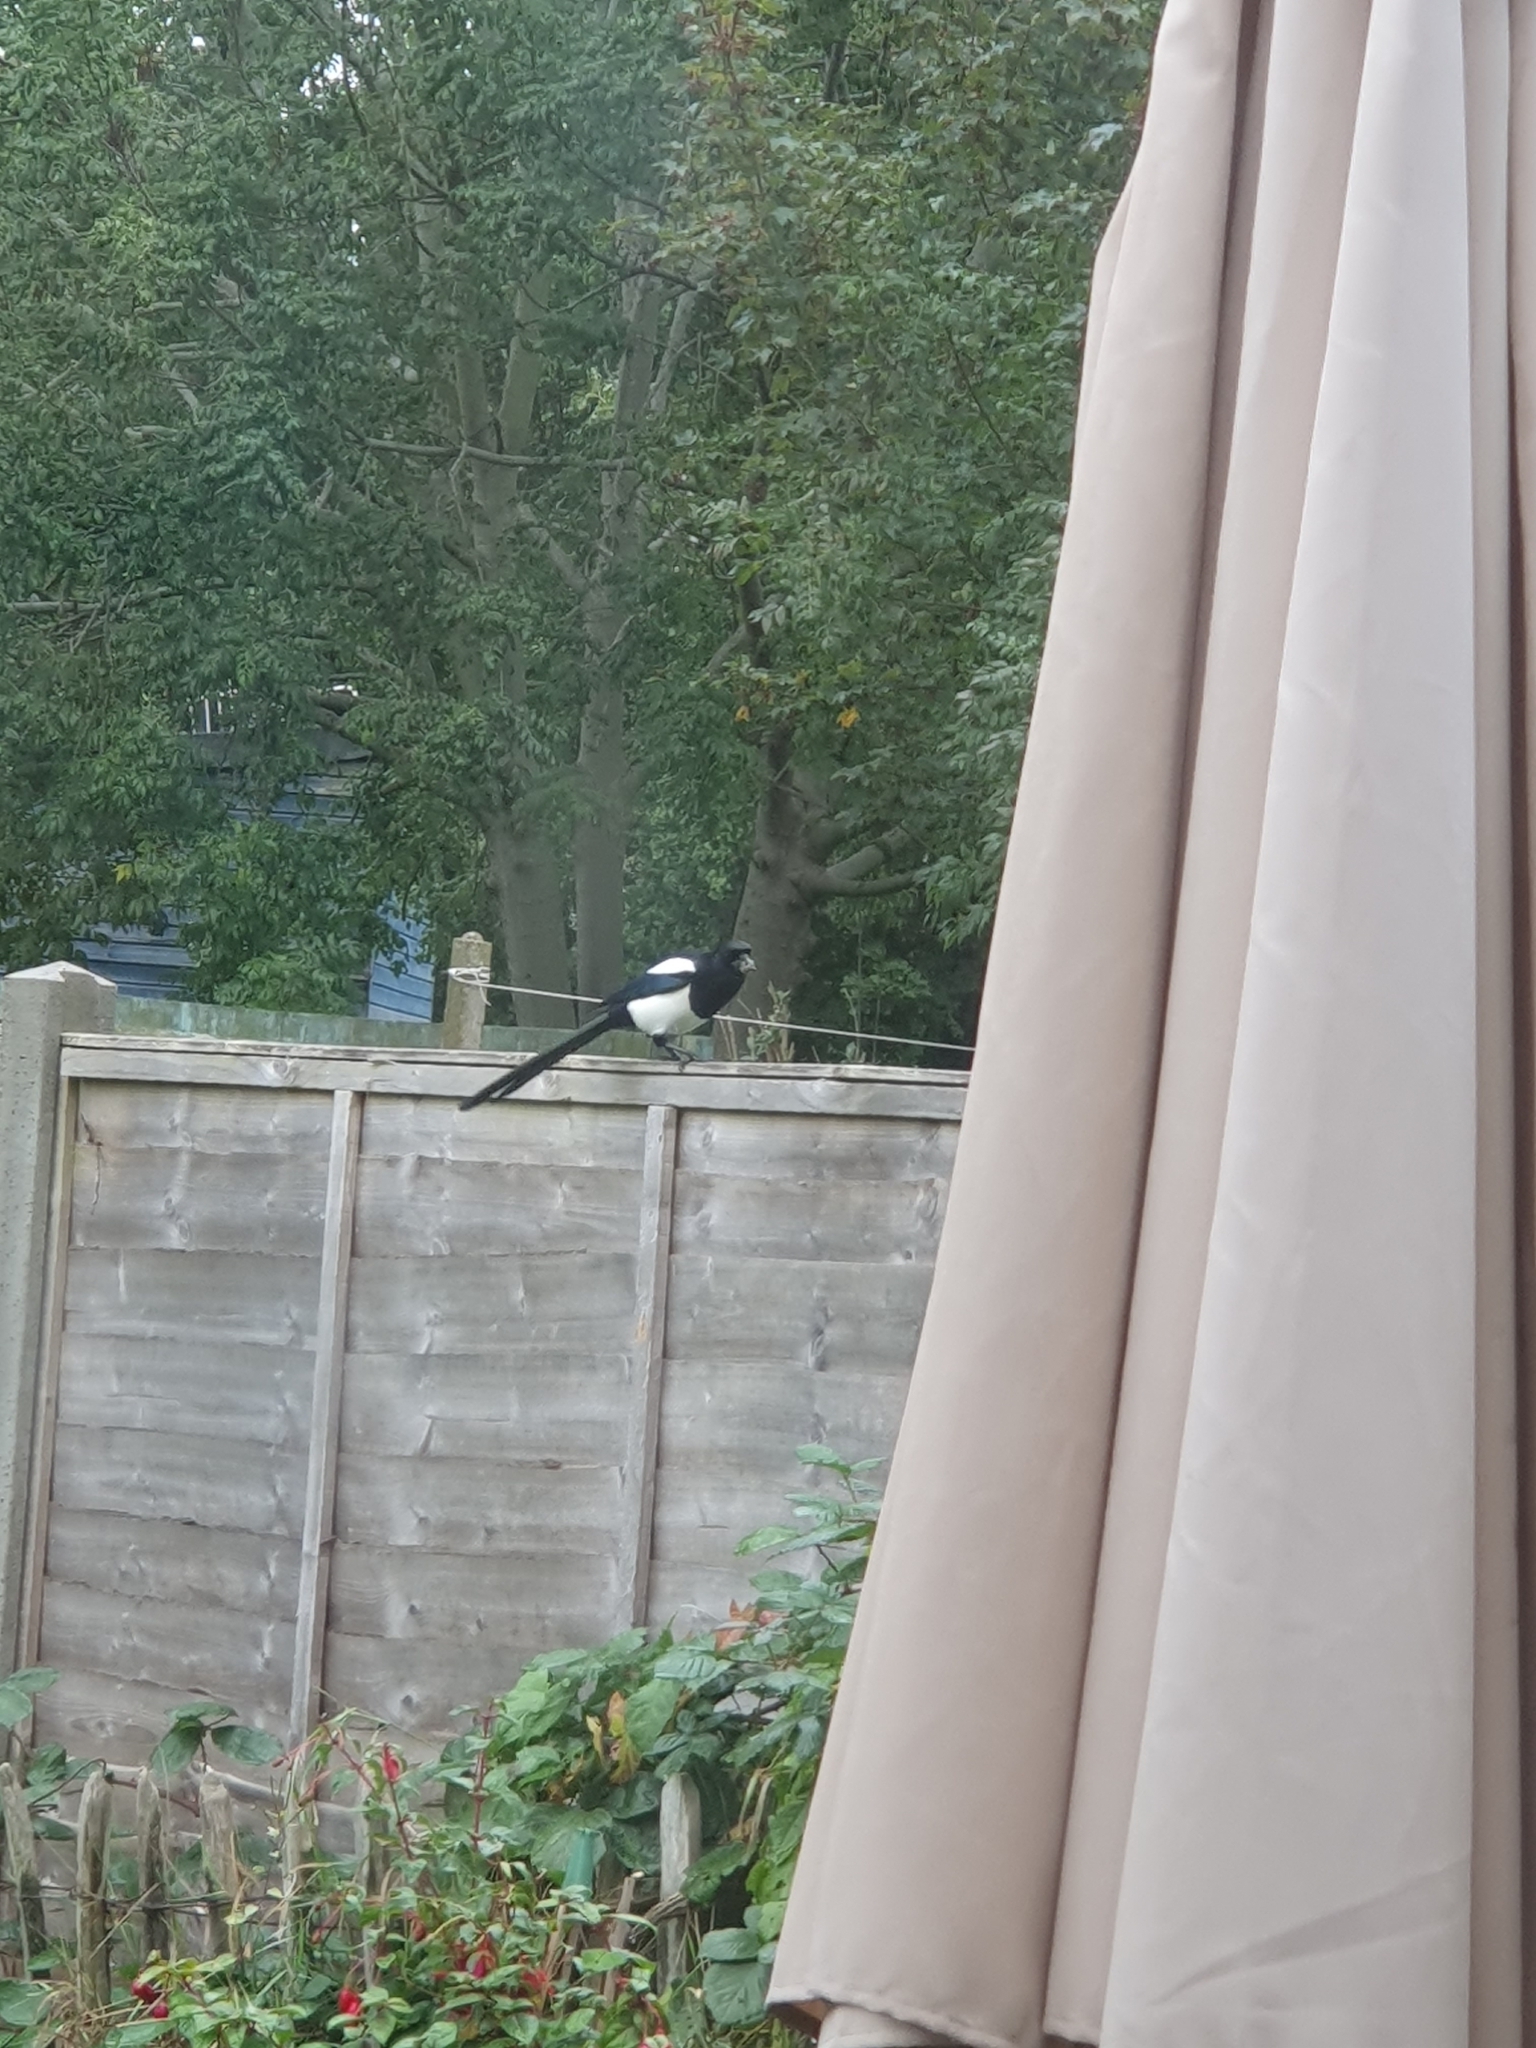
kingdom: Animalia
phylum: Chordata
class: Aves
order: Passeriformes
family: Corvidae
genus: Pica
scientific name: Pica pica
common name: Eurasian magpie
